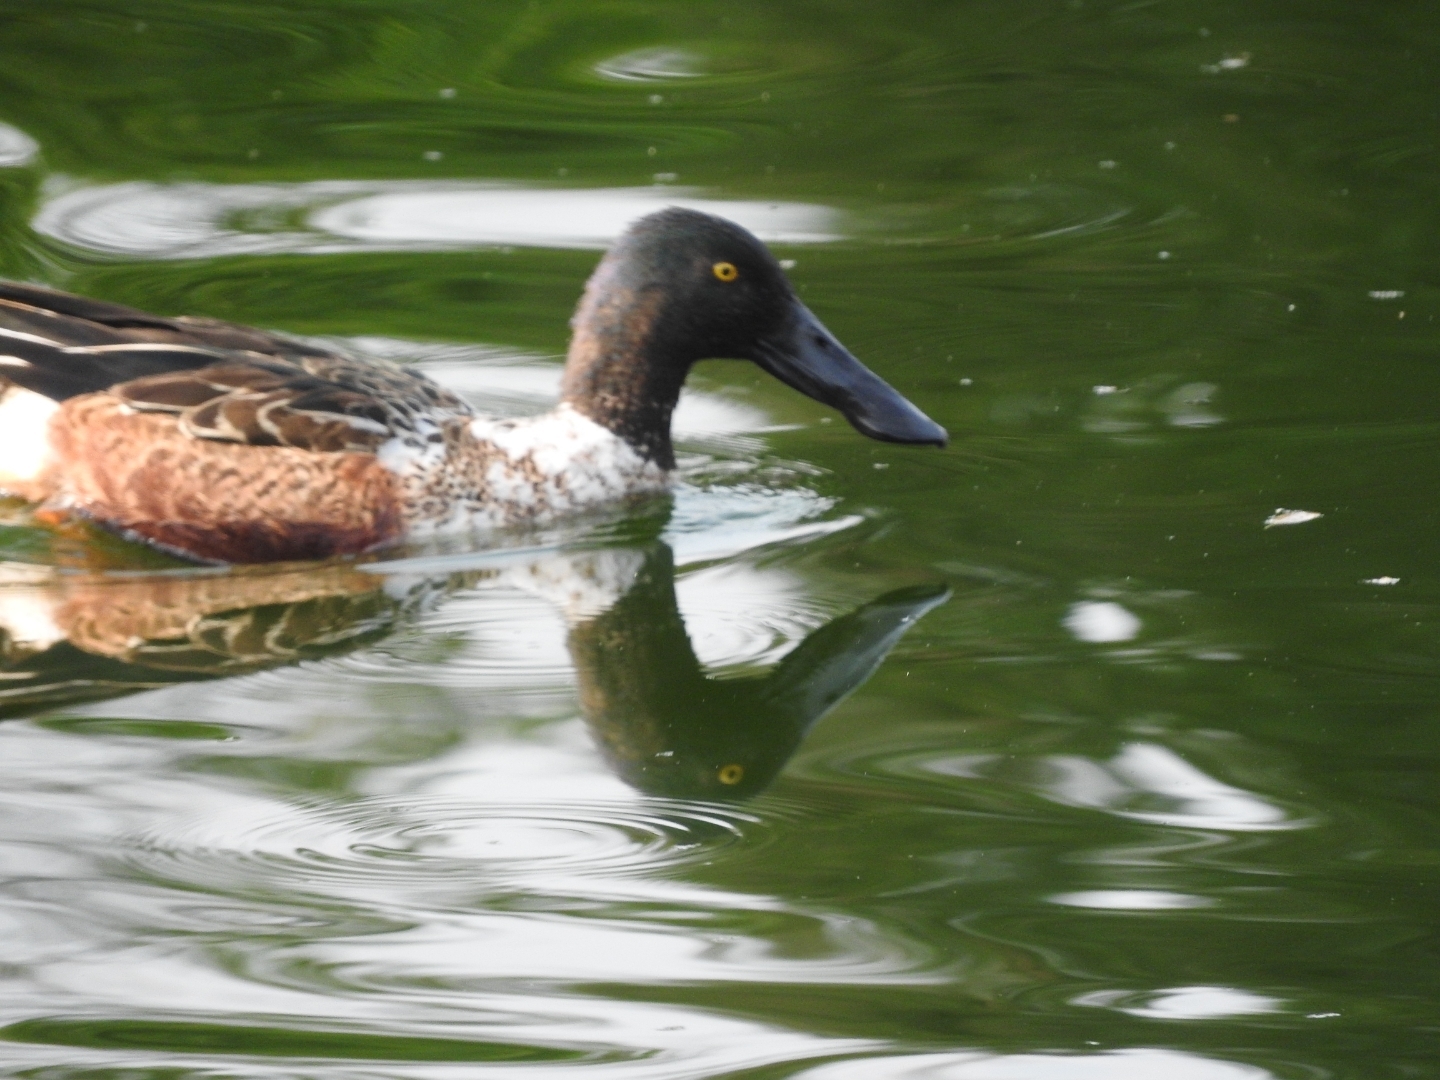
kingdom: Animalia
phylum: Chordata
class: Aves
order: Anseriformes
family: Anatidae
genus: Spatula
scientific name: Spatula clypeata
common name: Northern shoveler
